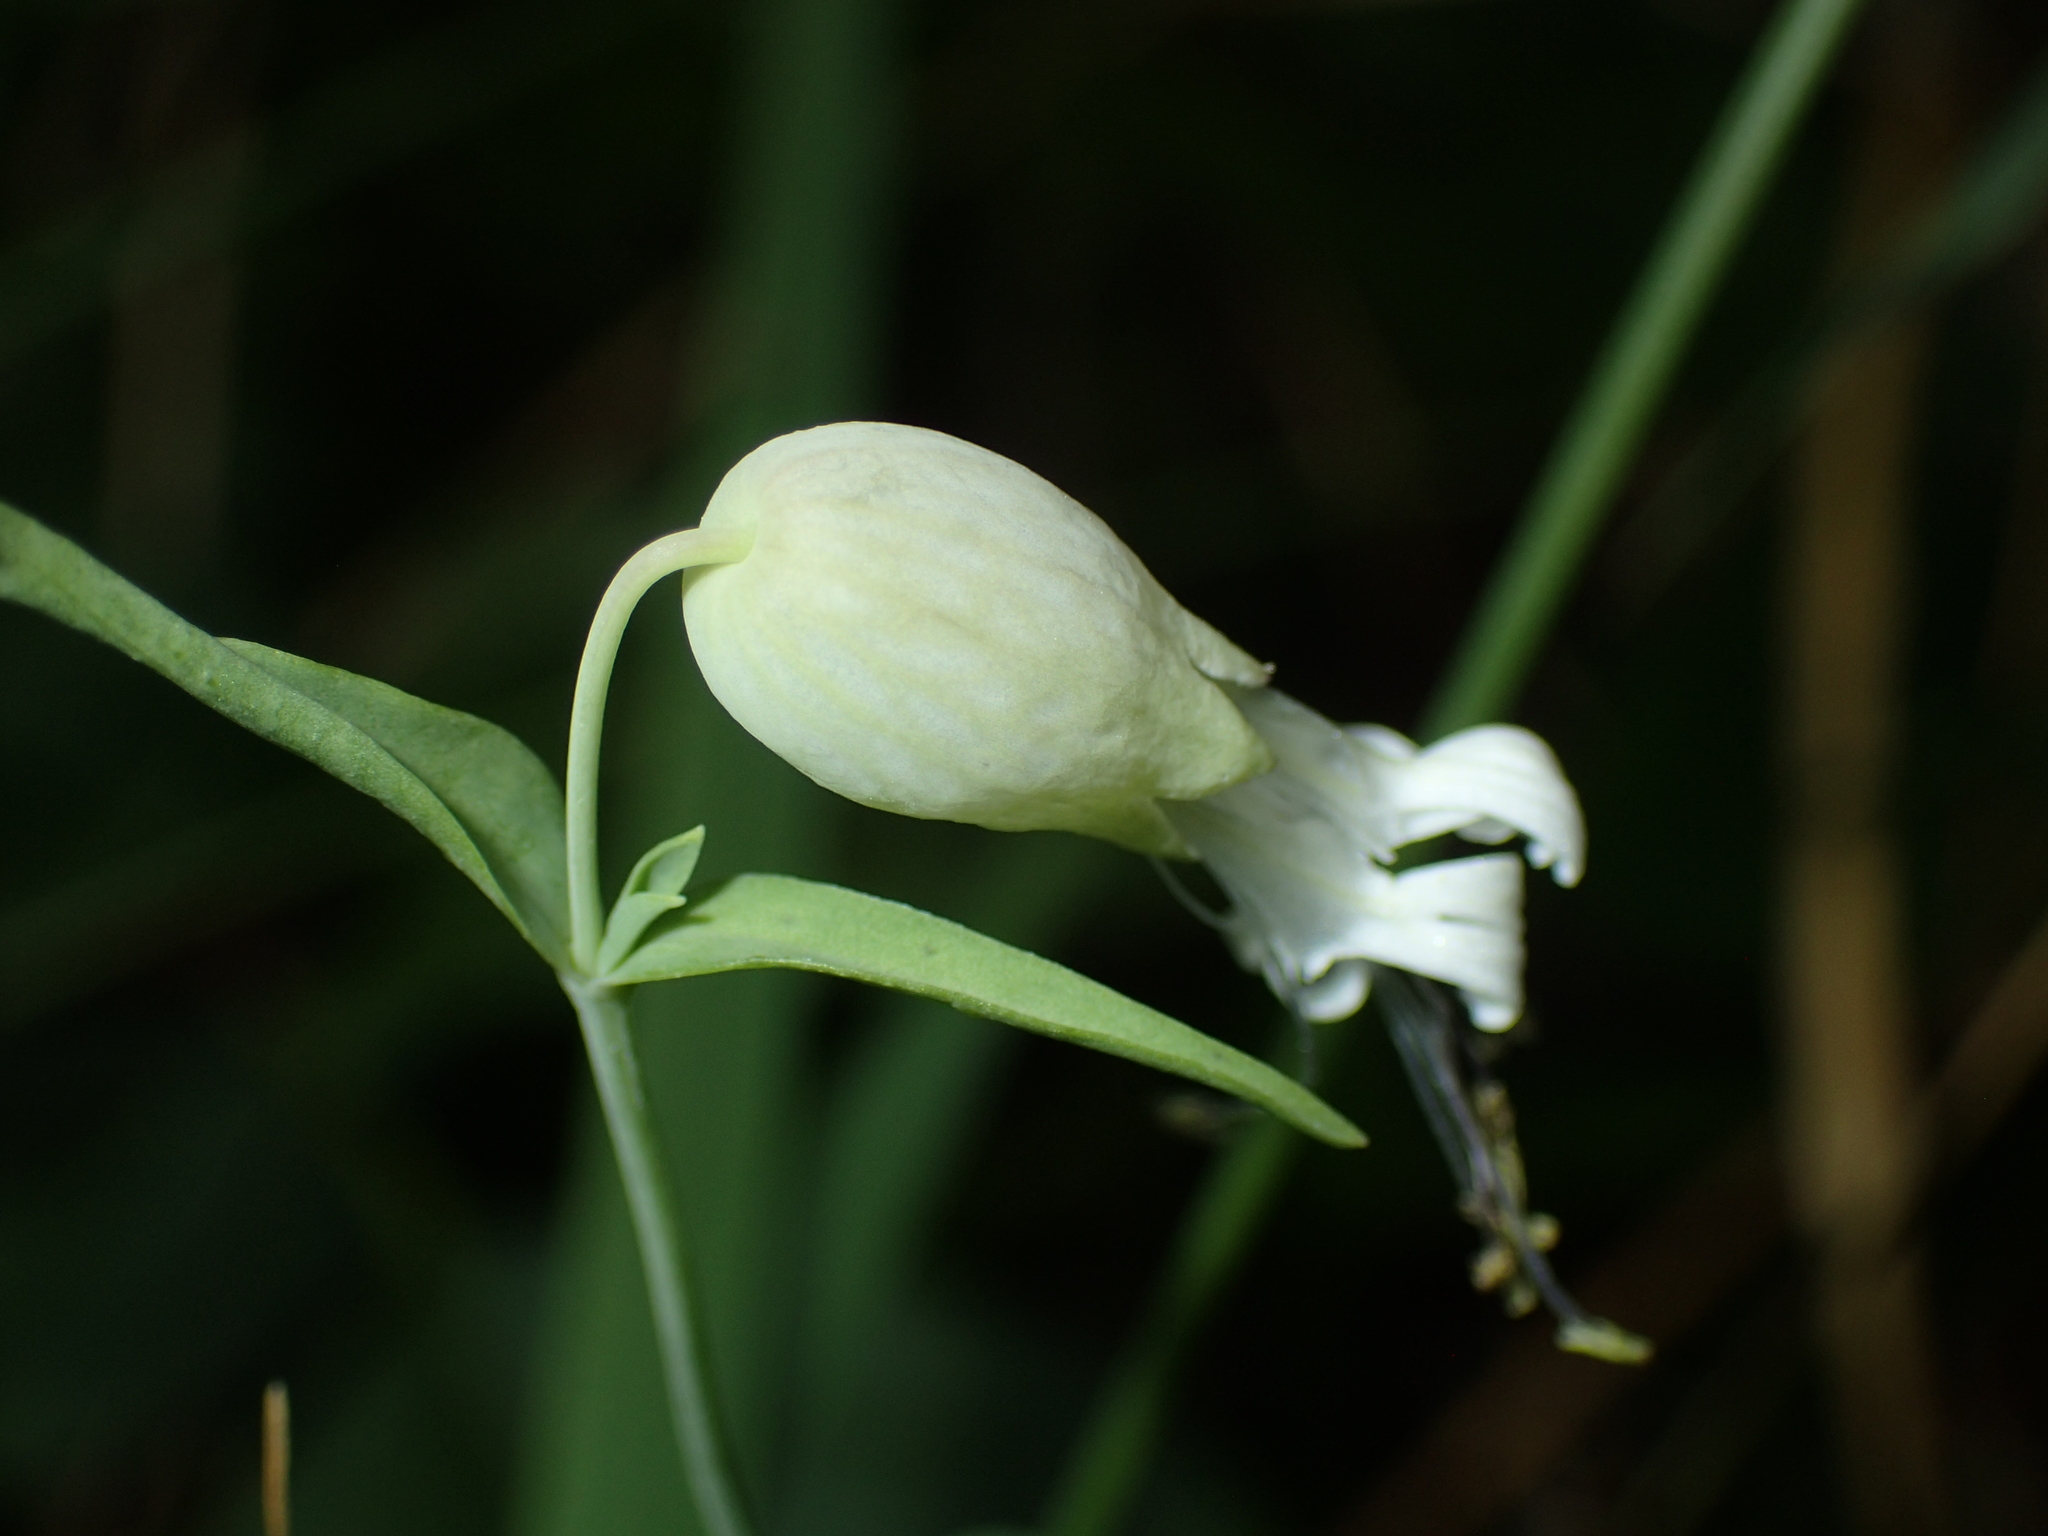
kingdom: Plantae
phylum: Tracheophyta
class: Magnoliopsida
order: Caryophyllales
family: Caryophyllaceae
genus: Silene
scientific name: Silene vulgaris
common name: Bladder campion
